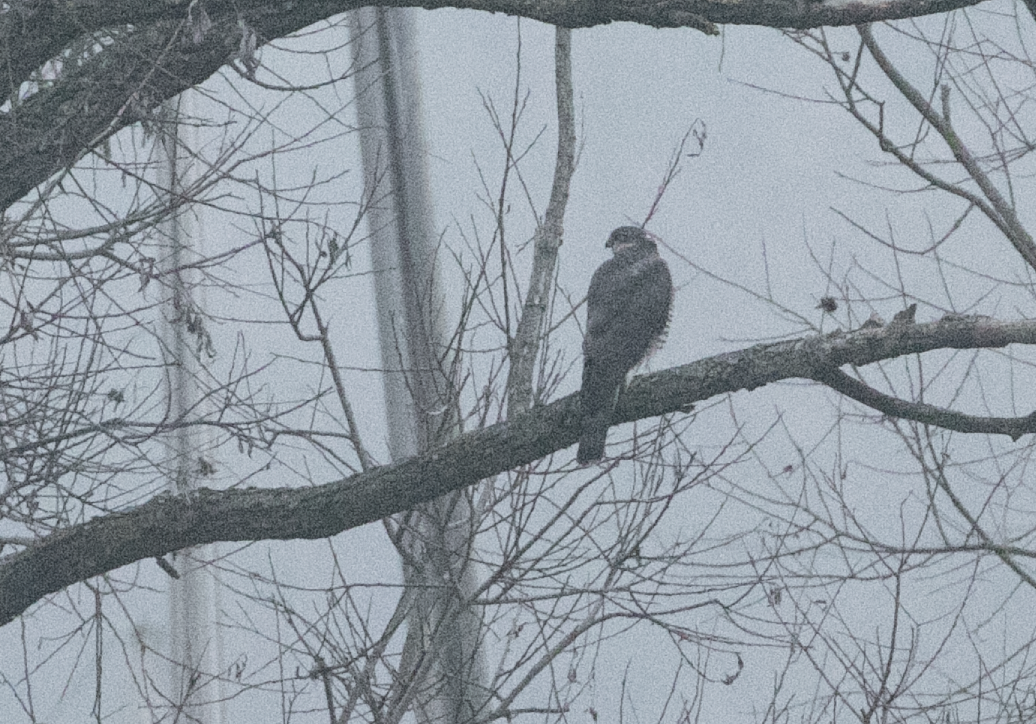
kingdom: Animalia
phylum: Chordata
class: Aves
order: Accipitriformes
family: Accipitridae
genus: Accipiter
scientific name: Accipiter nisus
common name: Eurasian sparrowhawk
